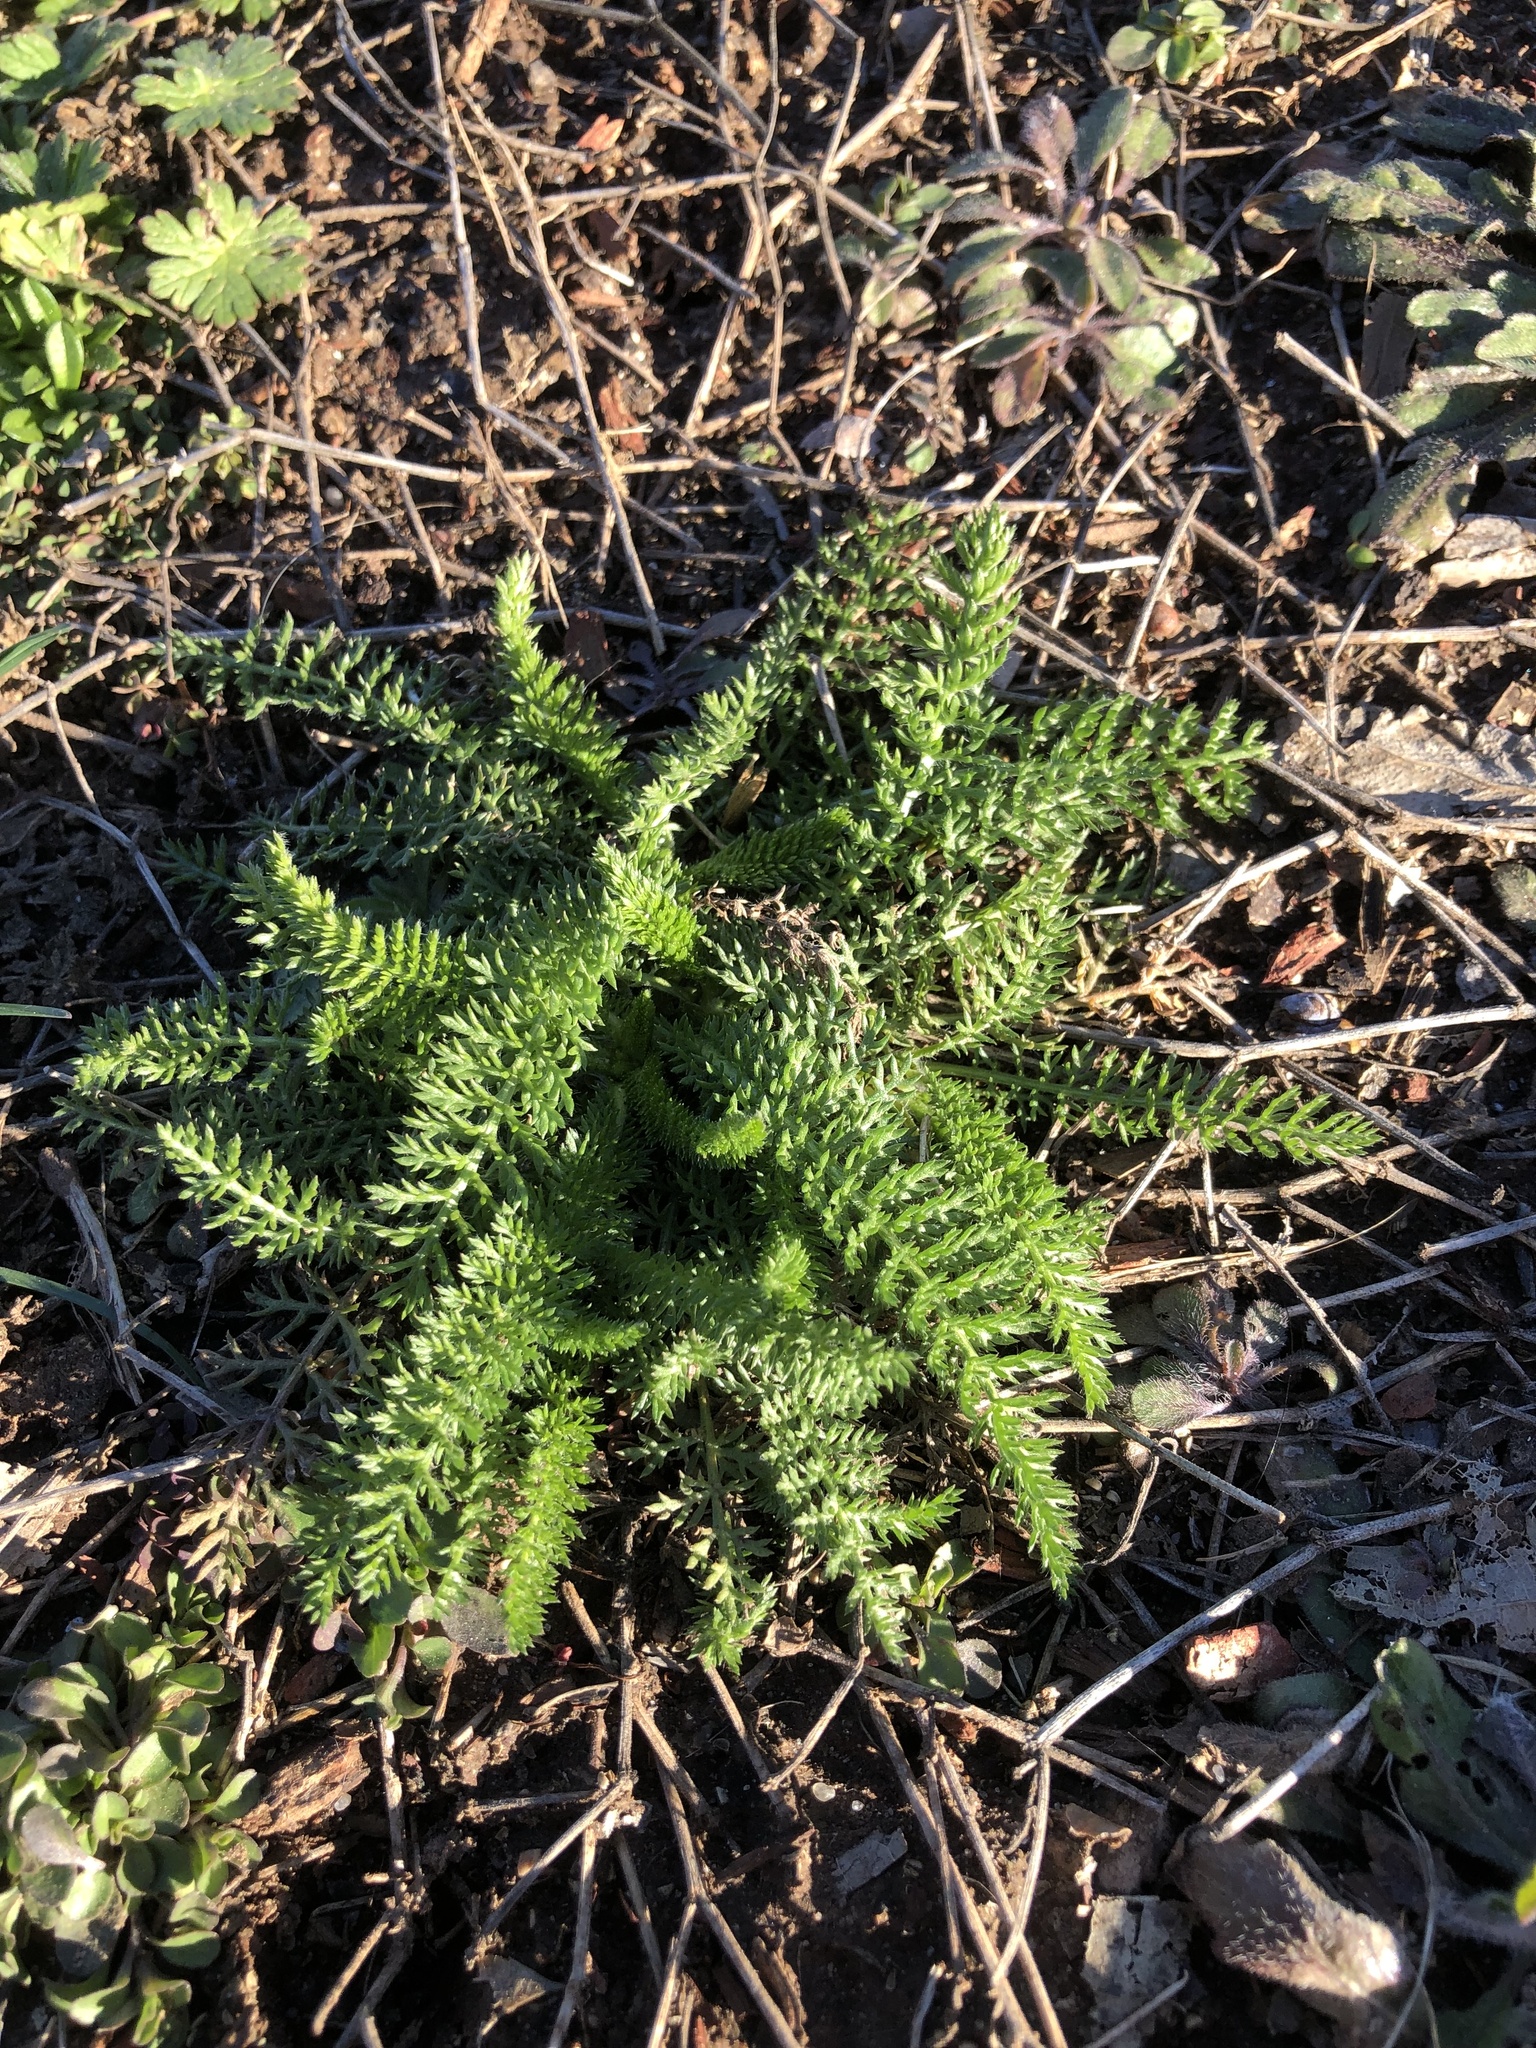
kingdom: Plantae
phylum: Tracheophyta
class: Magnoliopsida
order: Asterales
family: Asteraceae
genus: Achillea
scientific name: Achillea millefolium
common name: Yarrow
